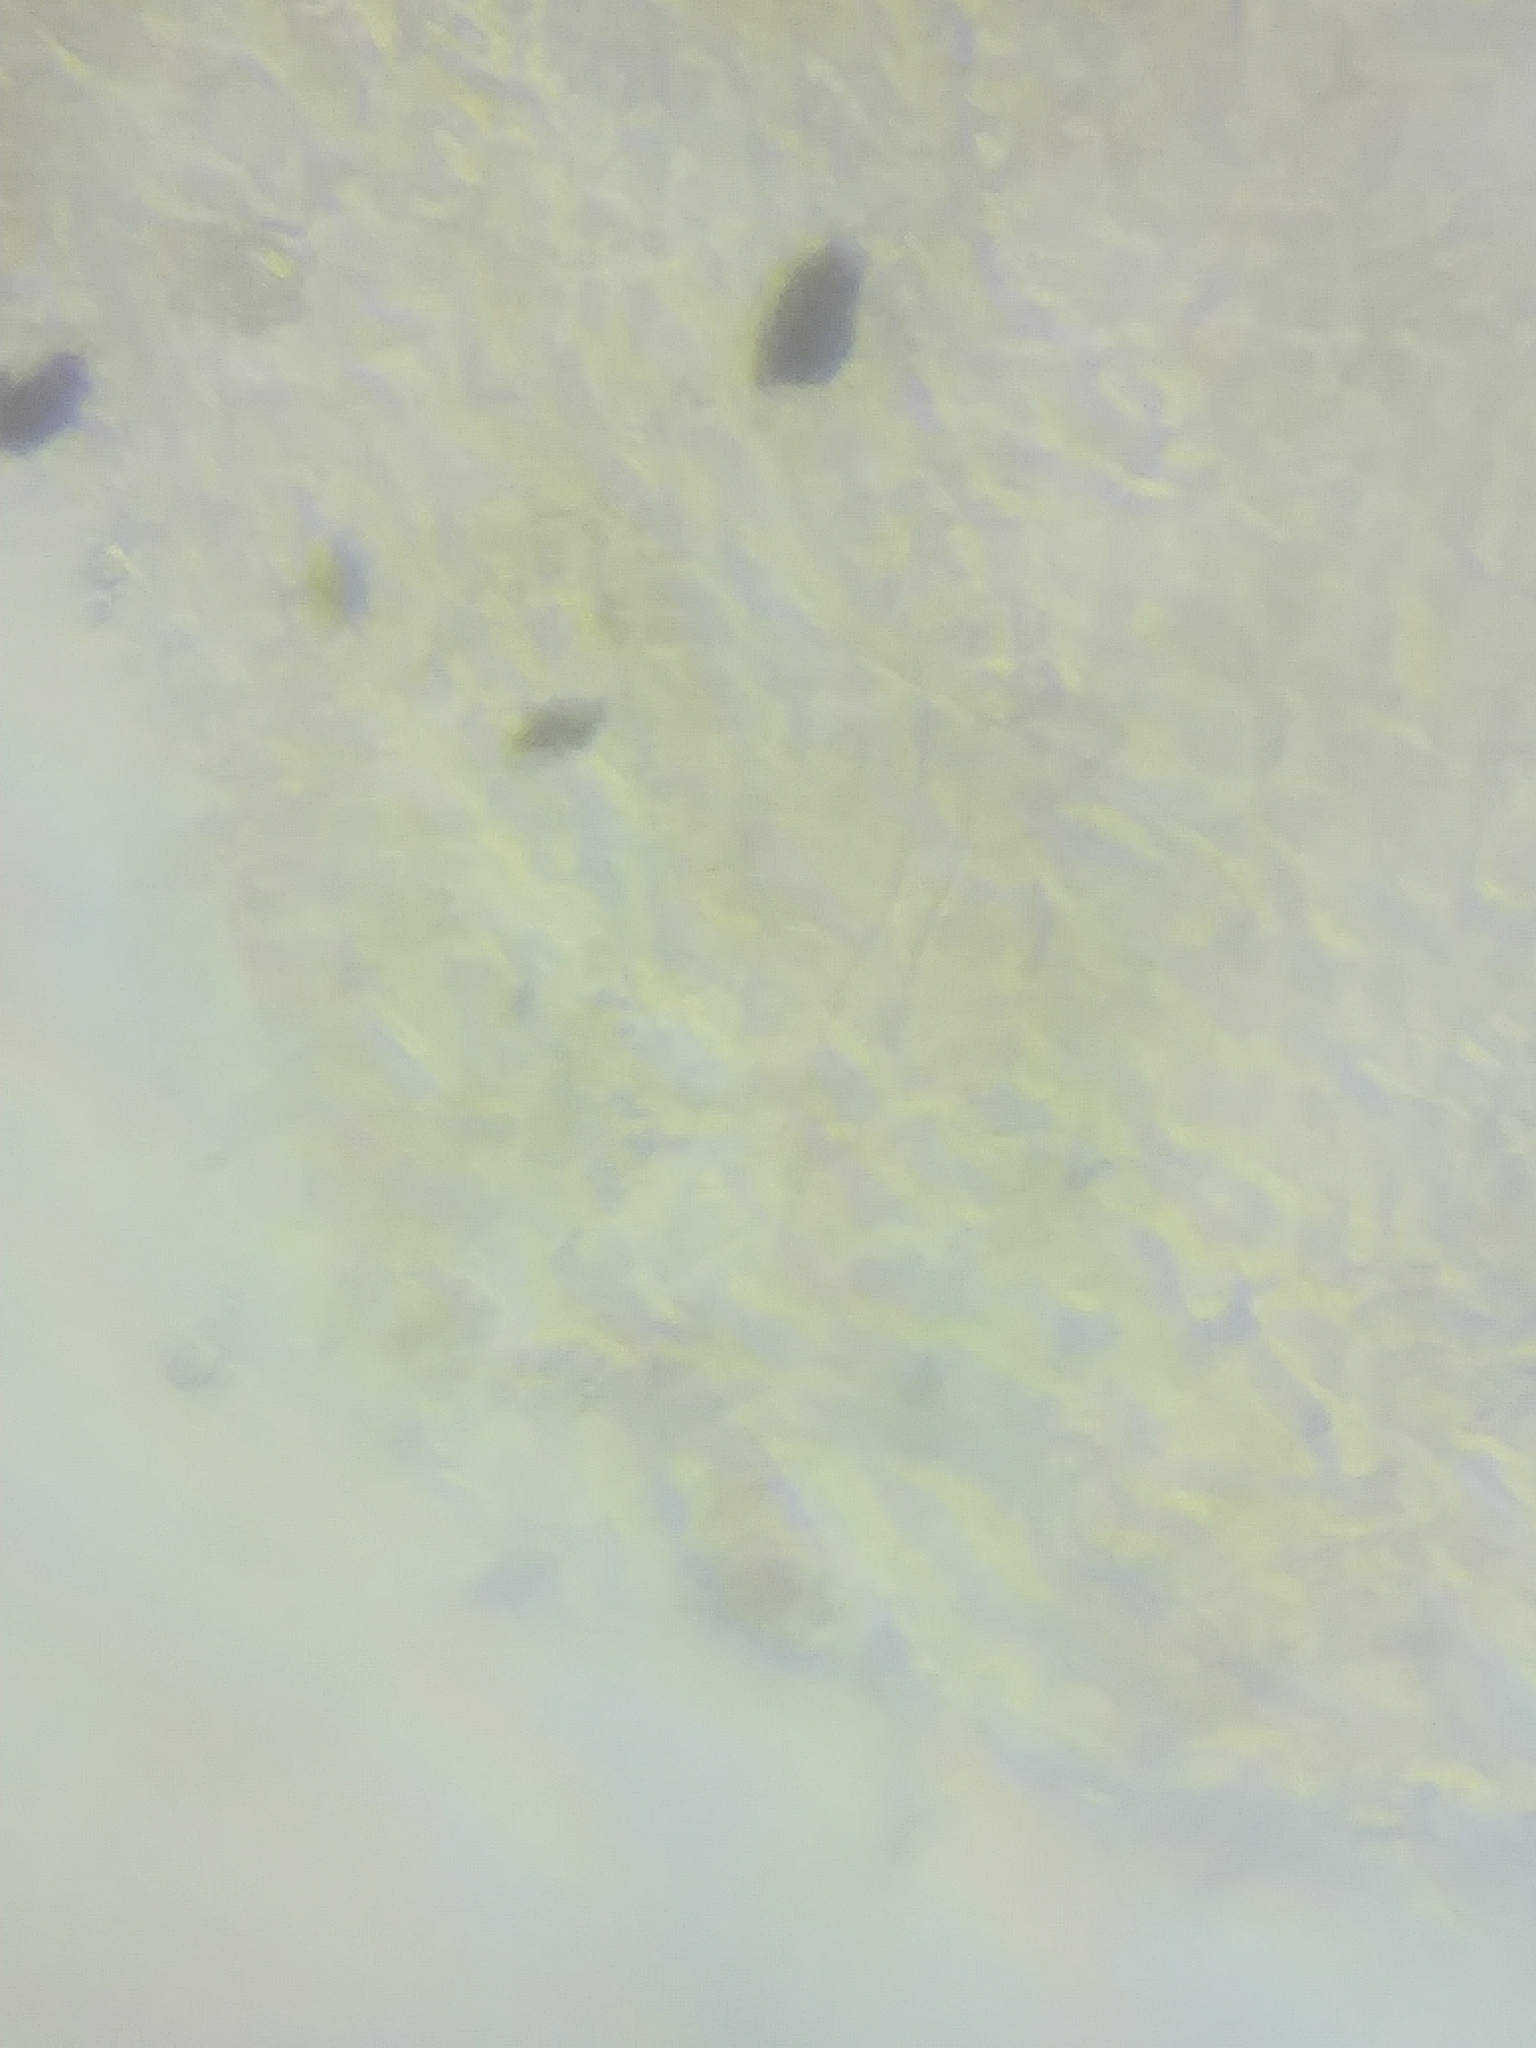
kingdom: Fungi
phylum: Basidiomycota
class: Agaricomycetes
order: Agaricales
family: Omphalotaceae
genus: Collybiopsis
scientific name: Collybiopsis confluens
